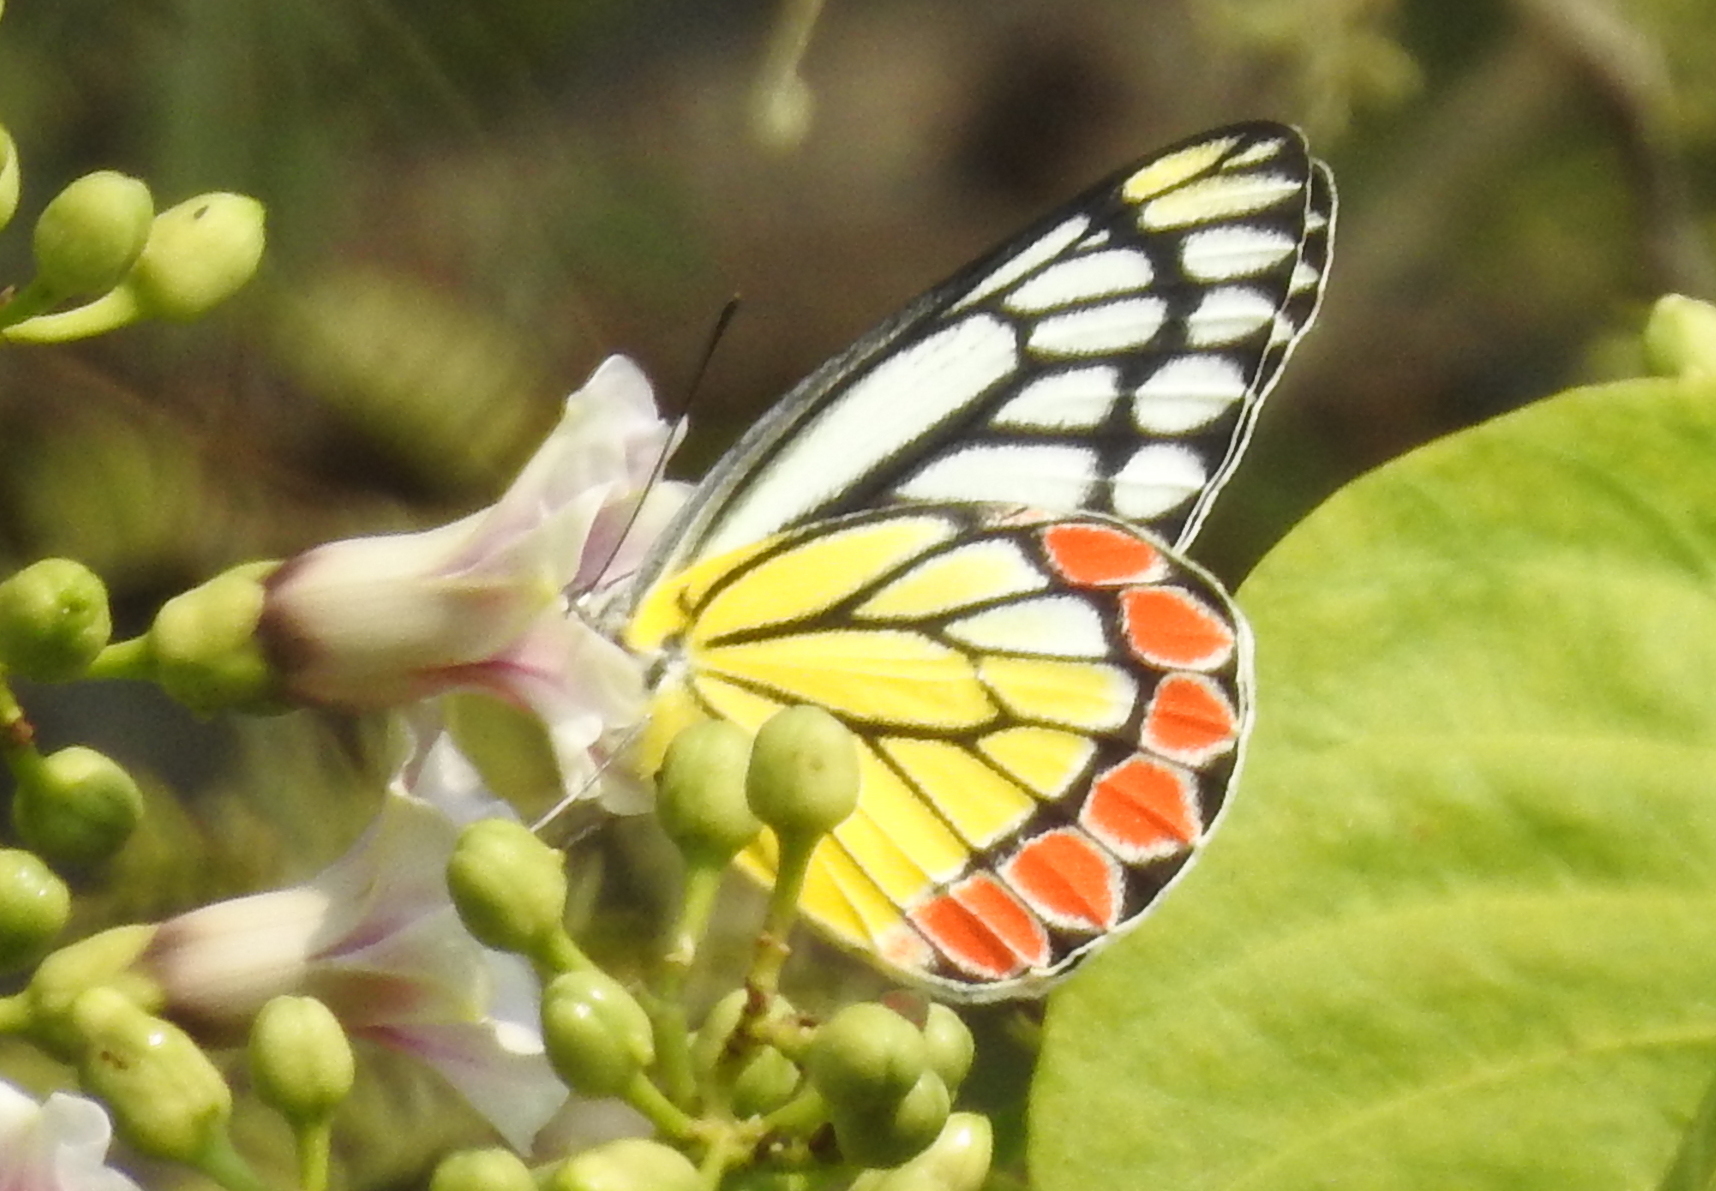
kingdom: Animalia
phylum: Arthropoda
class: Insecta
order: Lepidoptera
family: Pieridae
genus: Delias
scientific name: Delias eucharis
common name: Common jezebel
